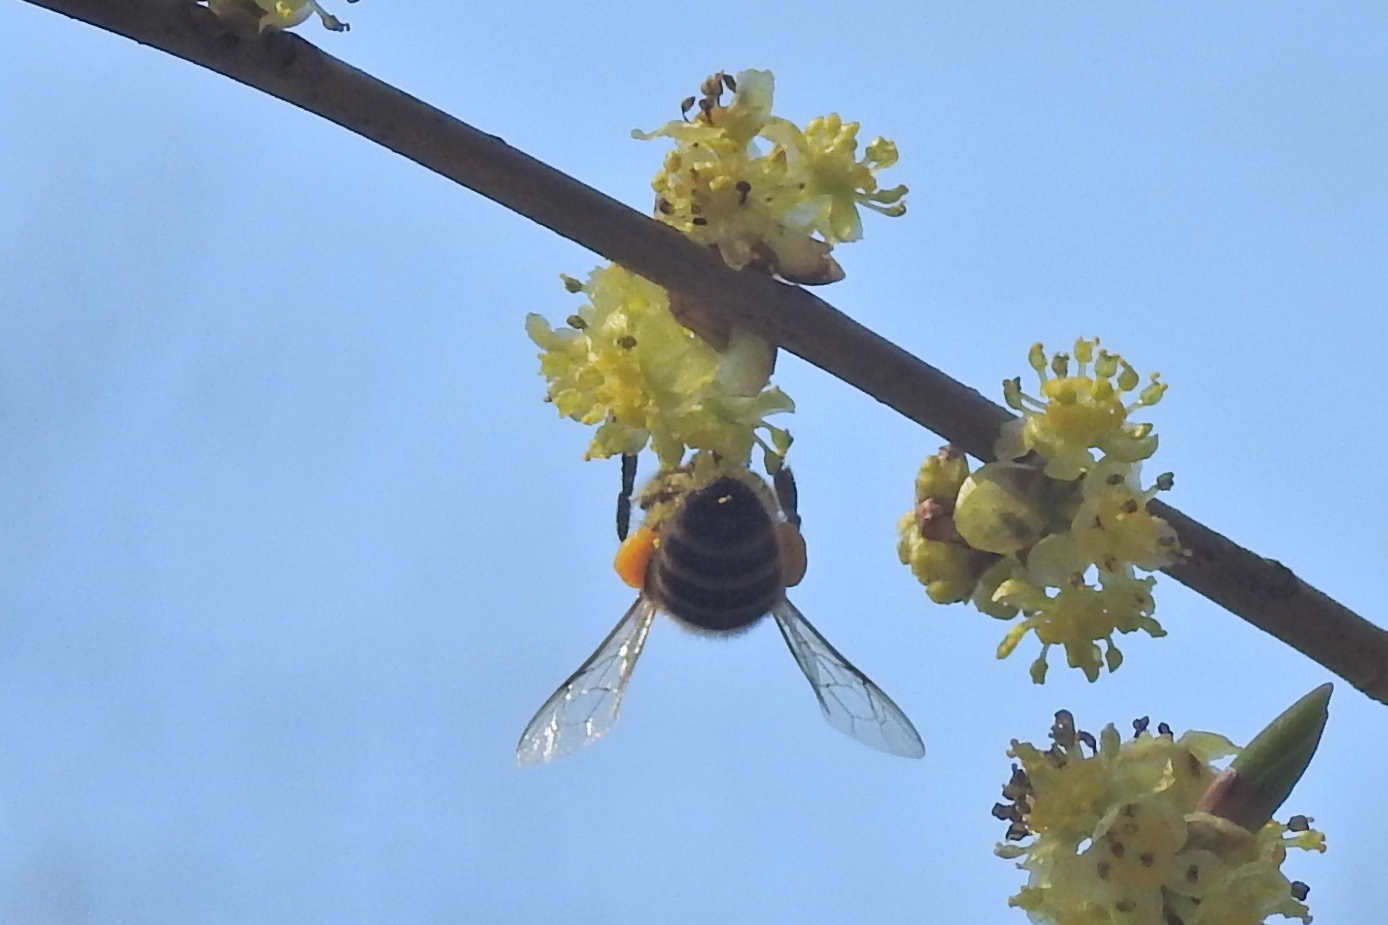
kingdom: Animalia
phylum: Arthropoda
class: Insecta
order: Hymenoptera
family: Apidae
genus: Apis
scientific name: Apis mellifera
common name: Honey bee
